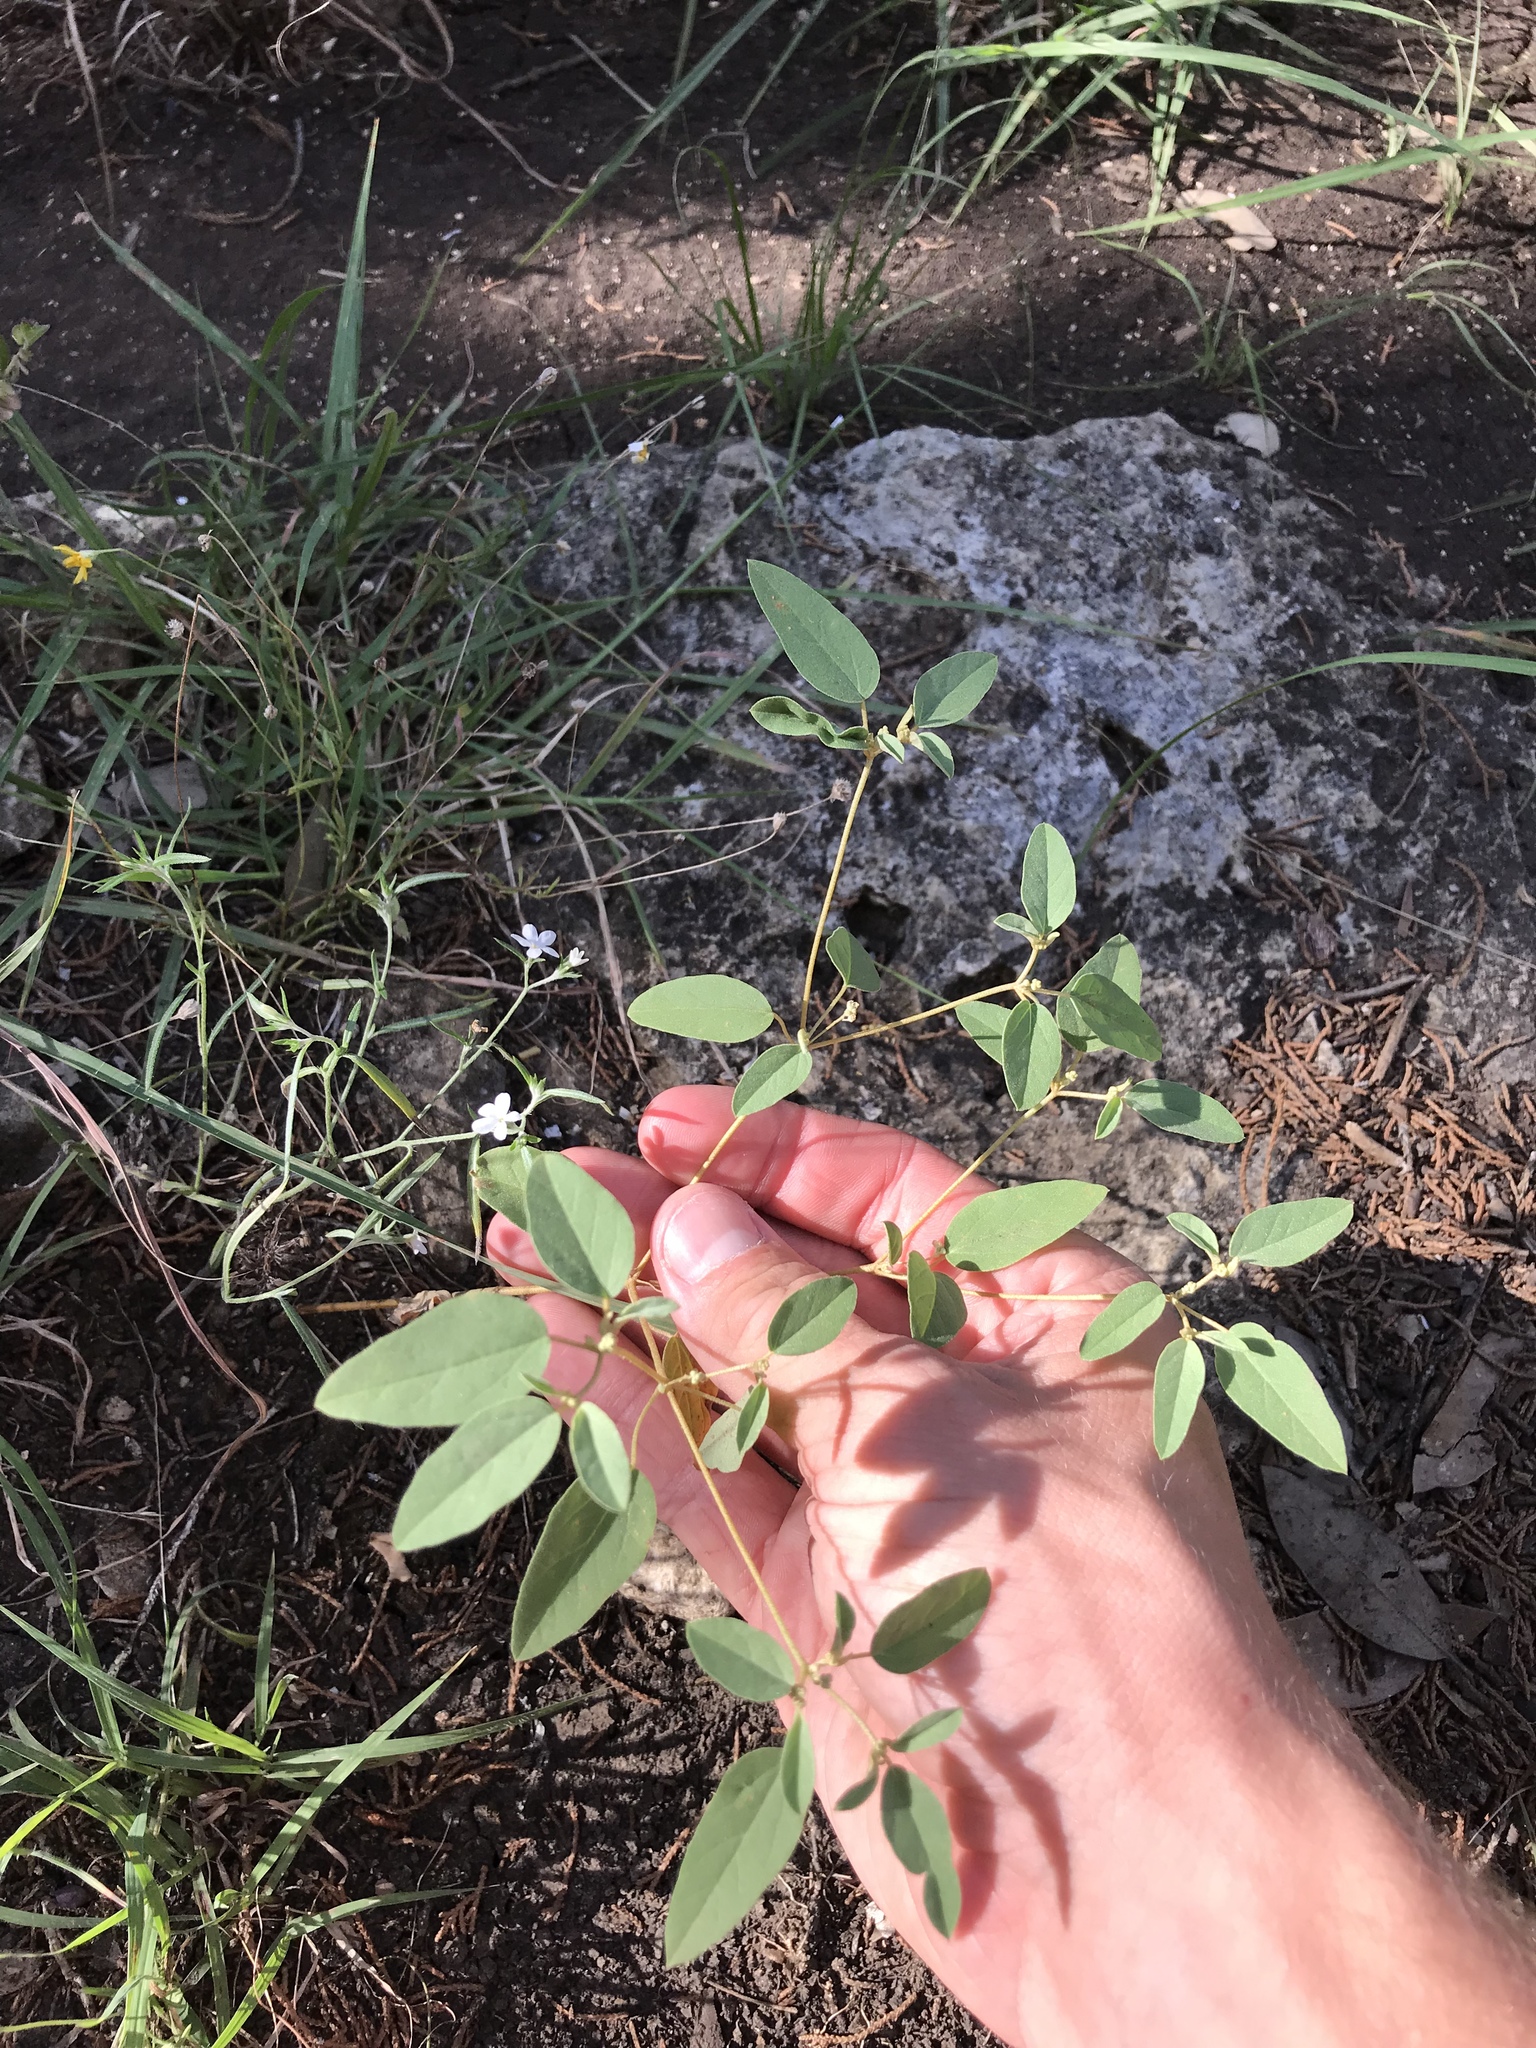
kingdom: Plantae
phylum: Tracheophyta
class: Magnoliopsida
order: Malpighiales
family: Euphorbiaceae
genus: Croton
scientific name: Croton monanthogynus
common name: One-seed croton
